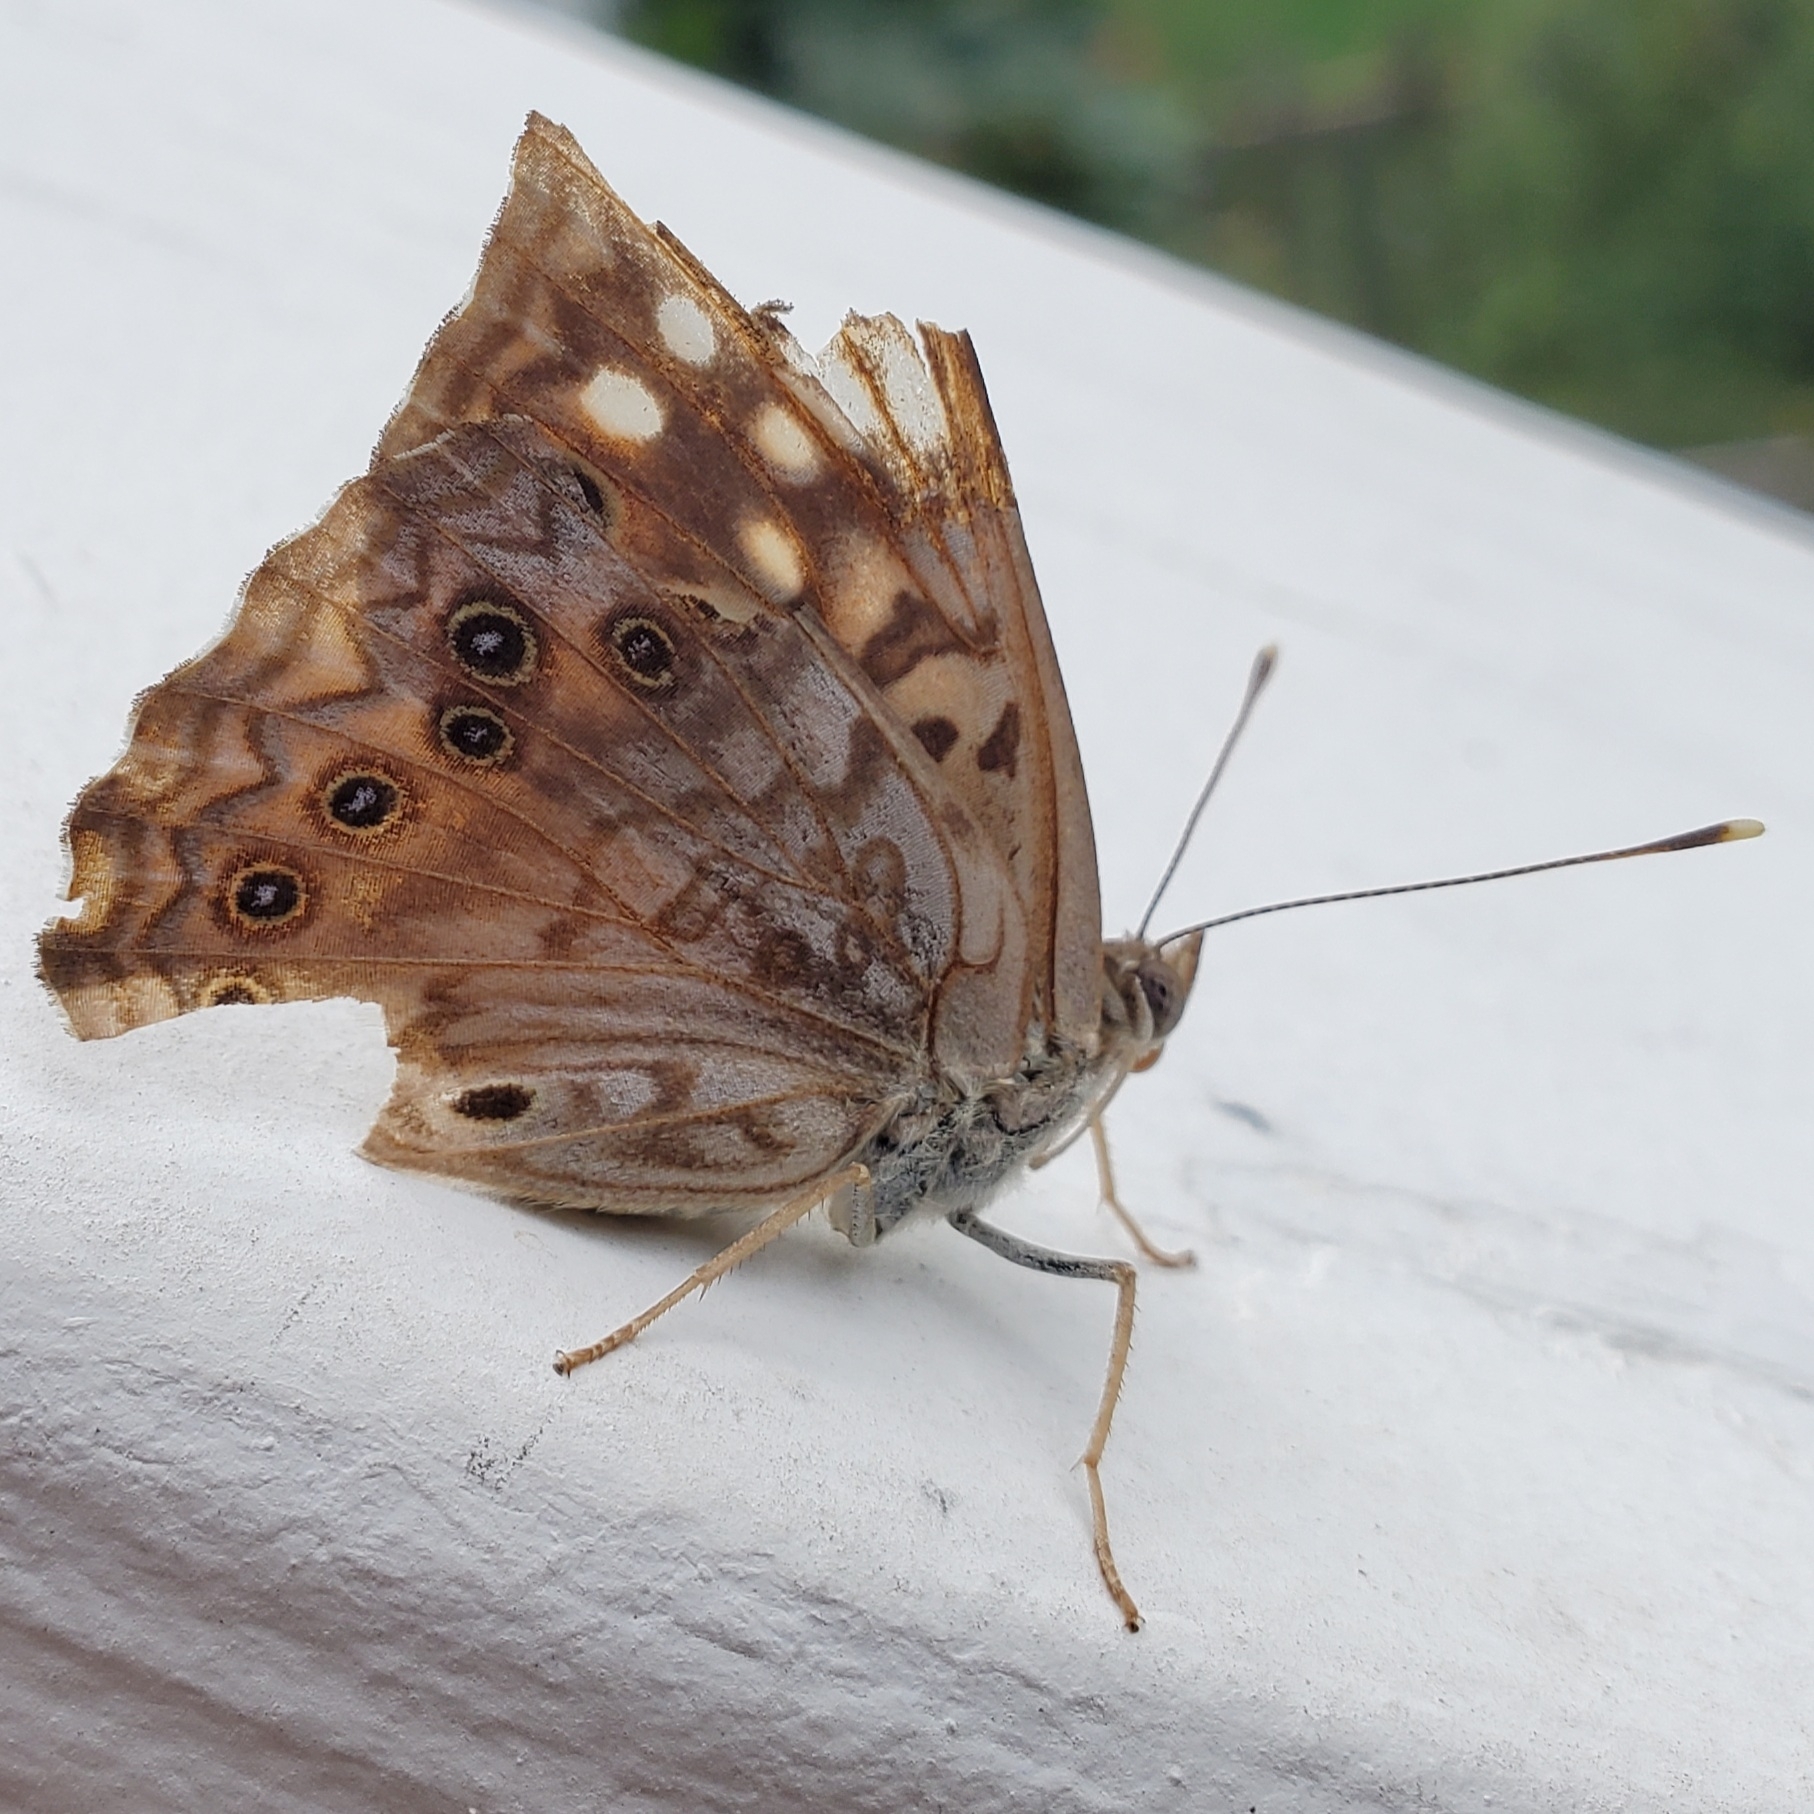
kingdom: Animalia
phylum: Arthropoda
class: Insecta
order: Lepidoptera
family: Nymphalidae
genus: Asterocampa
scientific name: Asterocampa celtis
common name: Hackberry emperor
